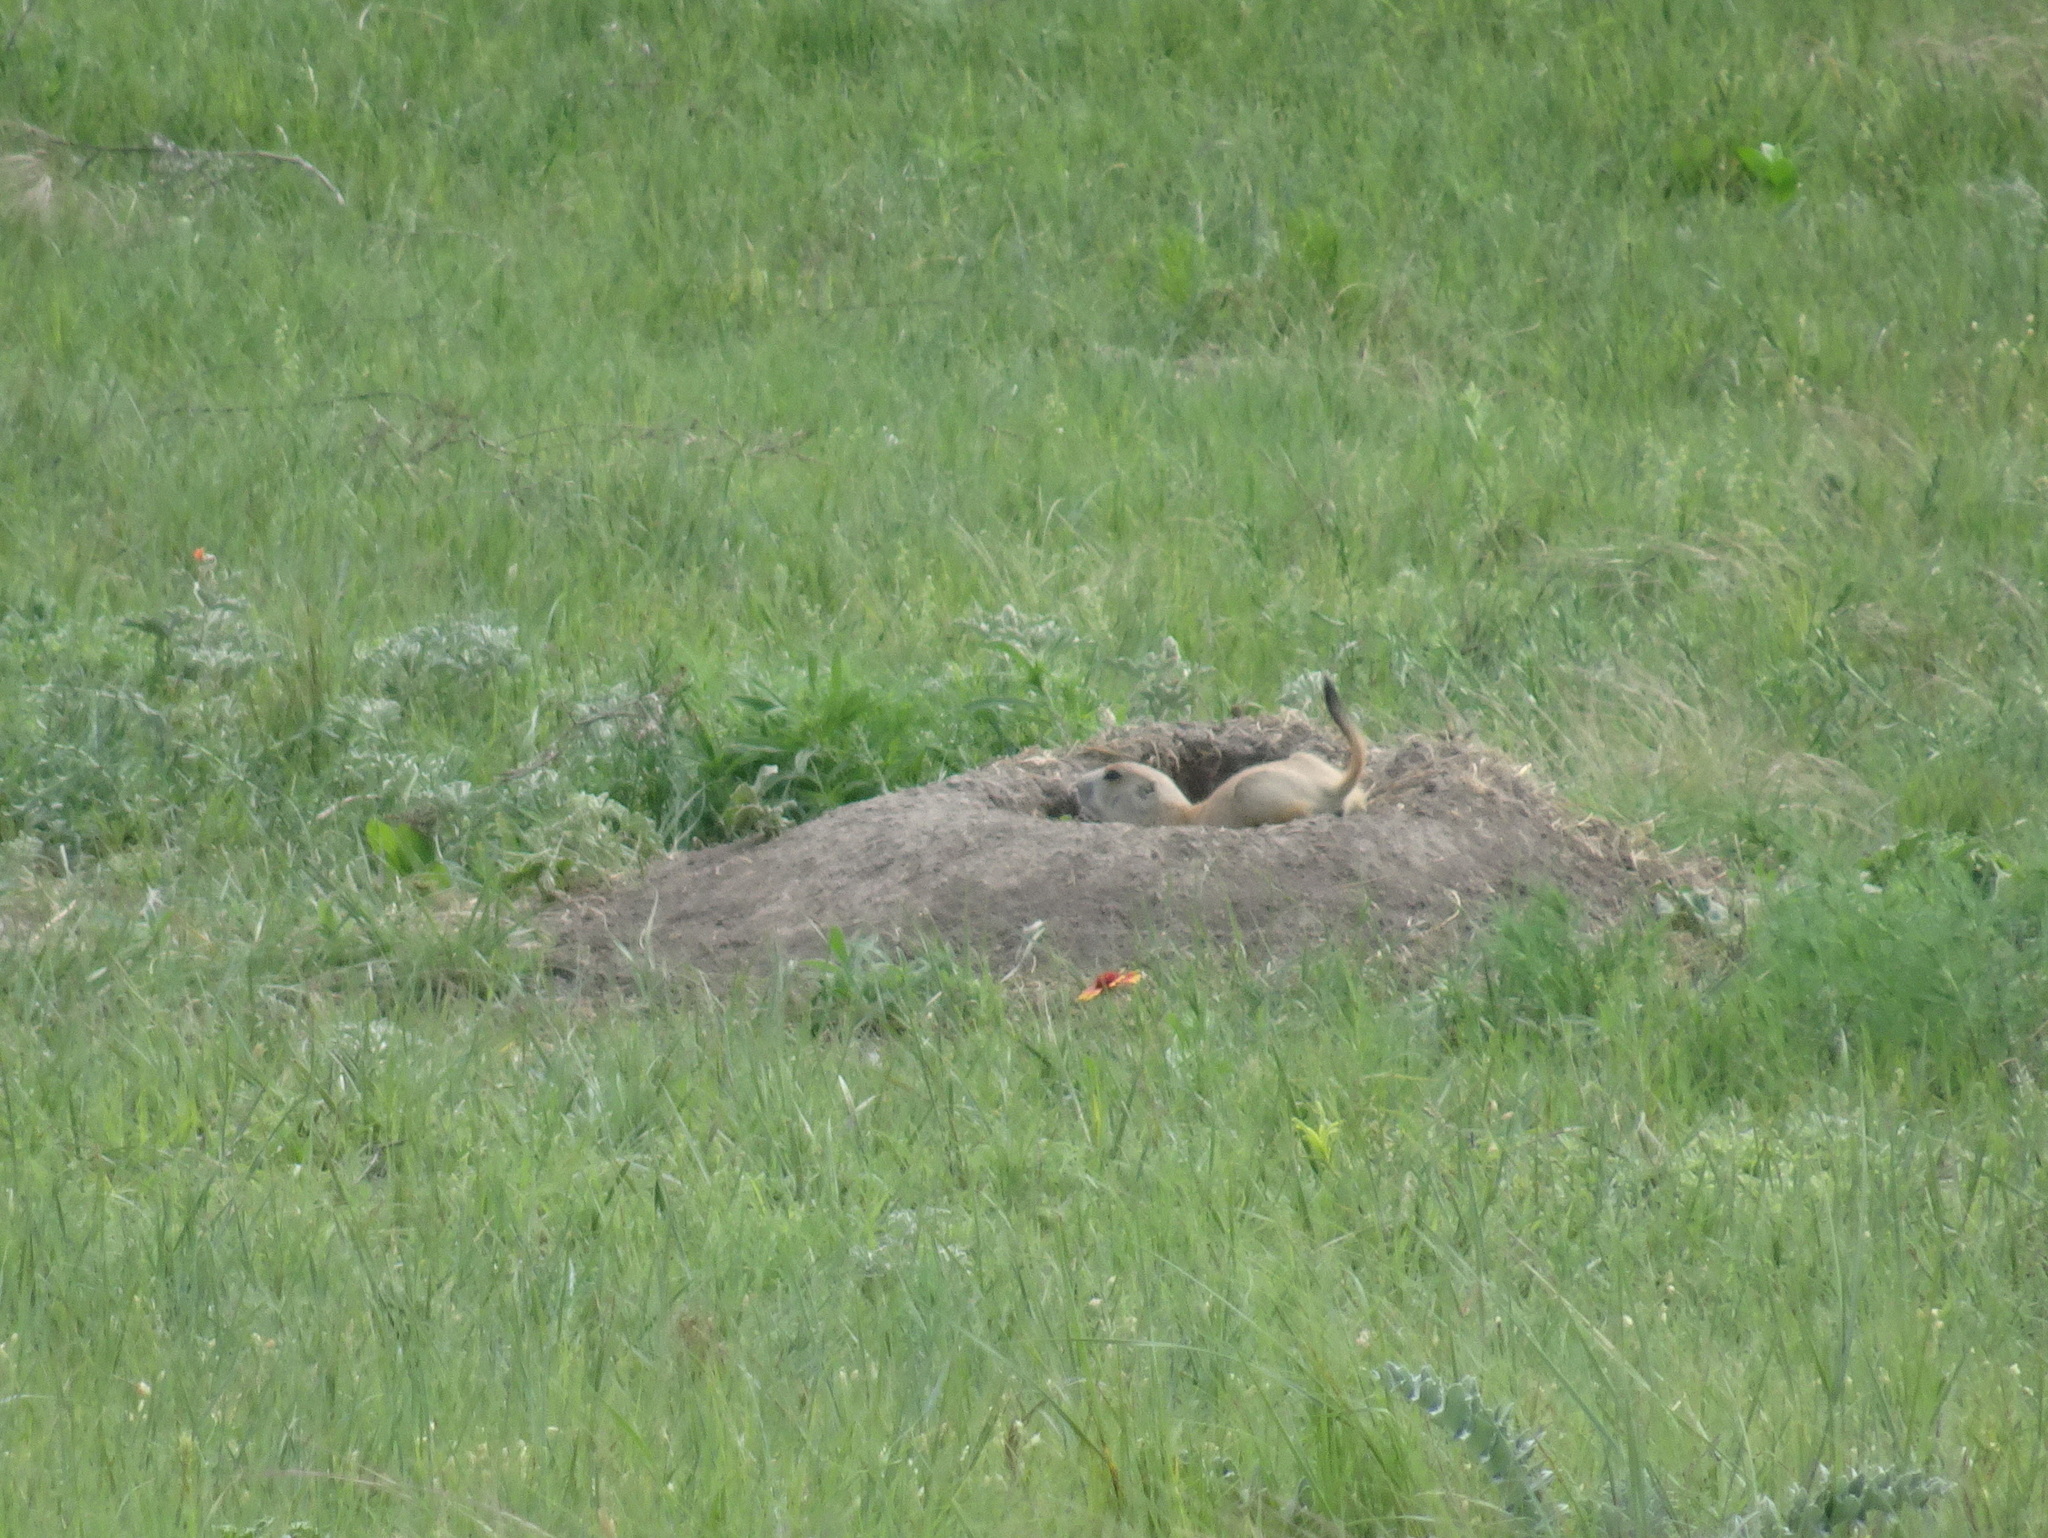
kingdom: Animalia
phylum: Chordata
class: Mammalia
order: Rodentia
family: Sciuridae
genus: Cynomys
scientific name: Cynomys ludovicianus
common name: Black-tailed prairie dog
